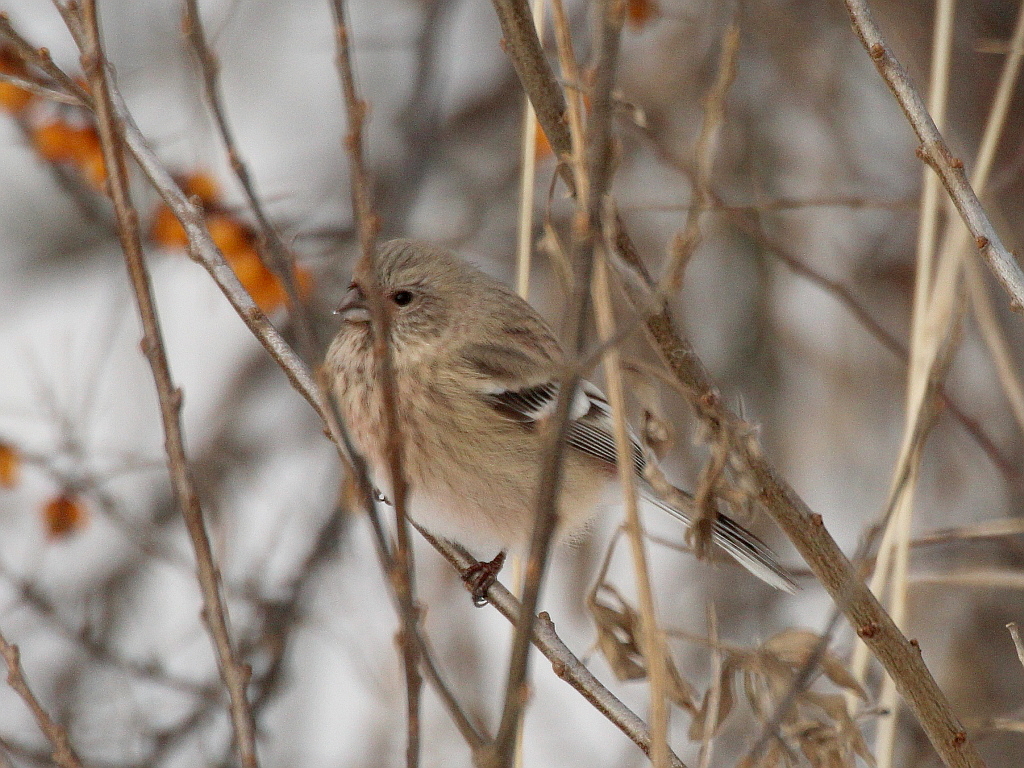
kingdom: Animalia
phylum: Chordata
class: Aves
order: Passeriformes
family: Fringillidae
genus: Carpodacus
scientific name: Carpodacus sibiricus
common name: Long-tailed rosefinch
